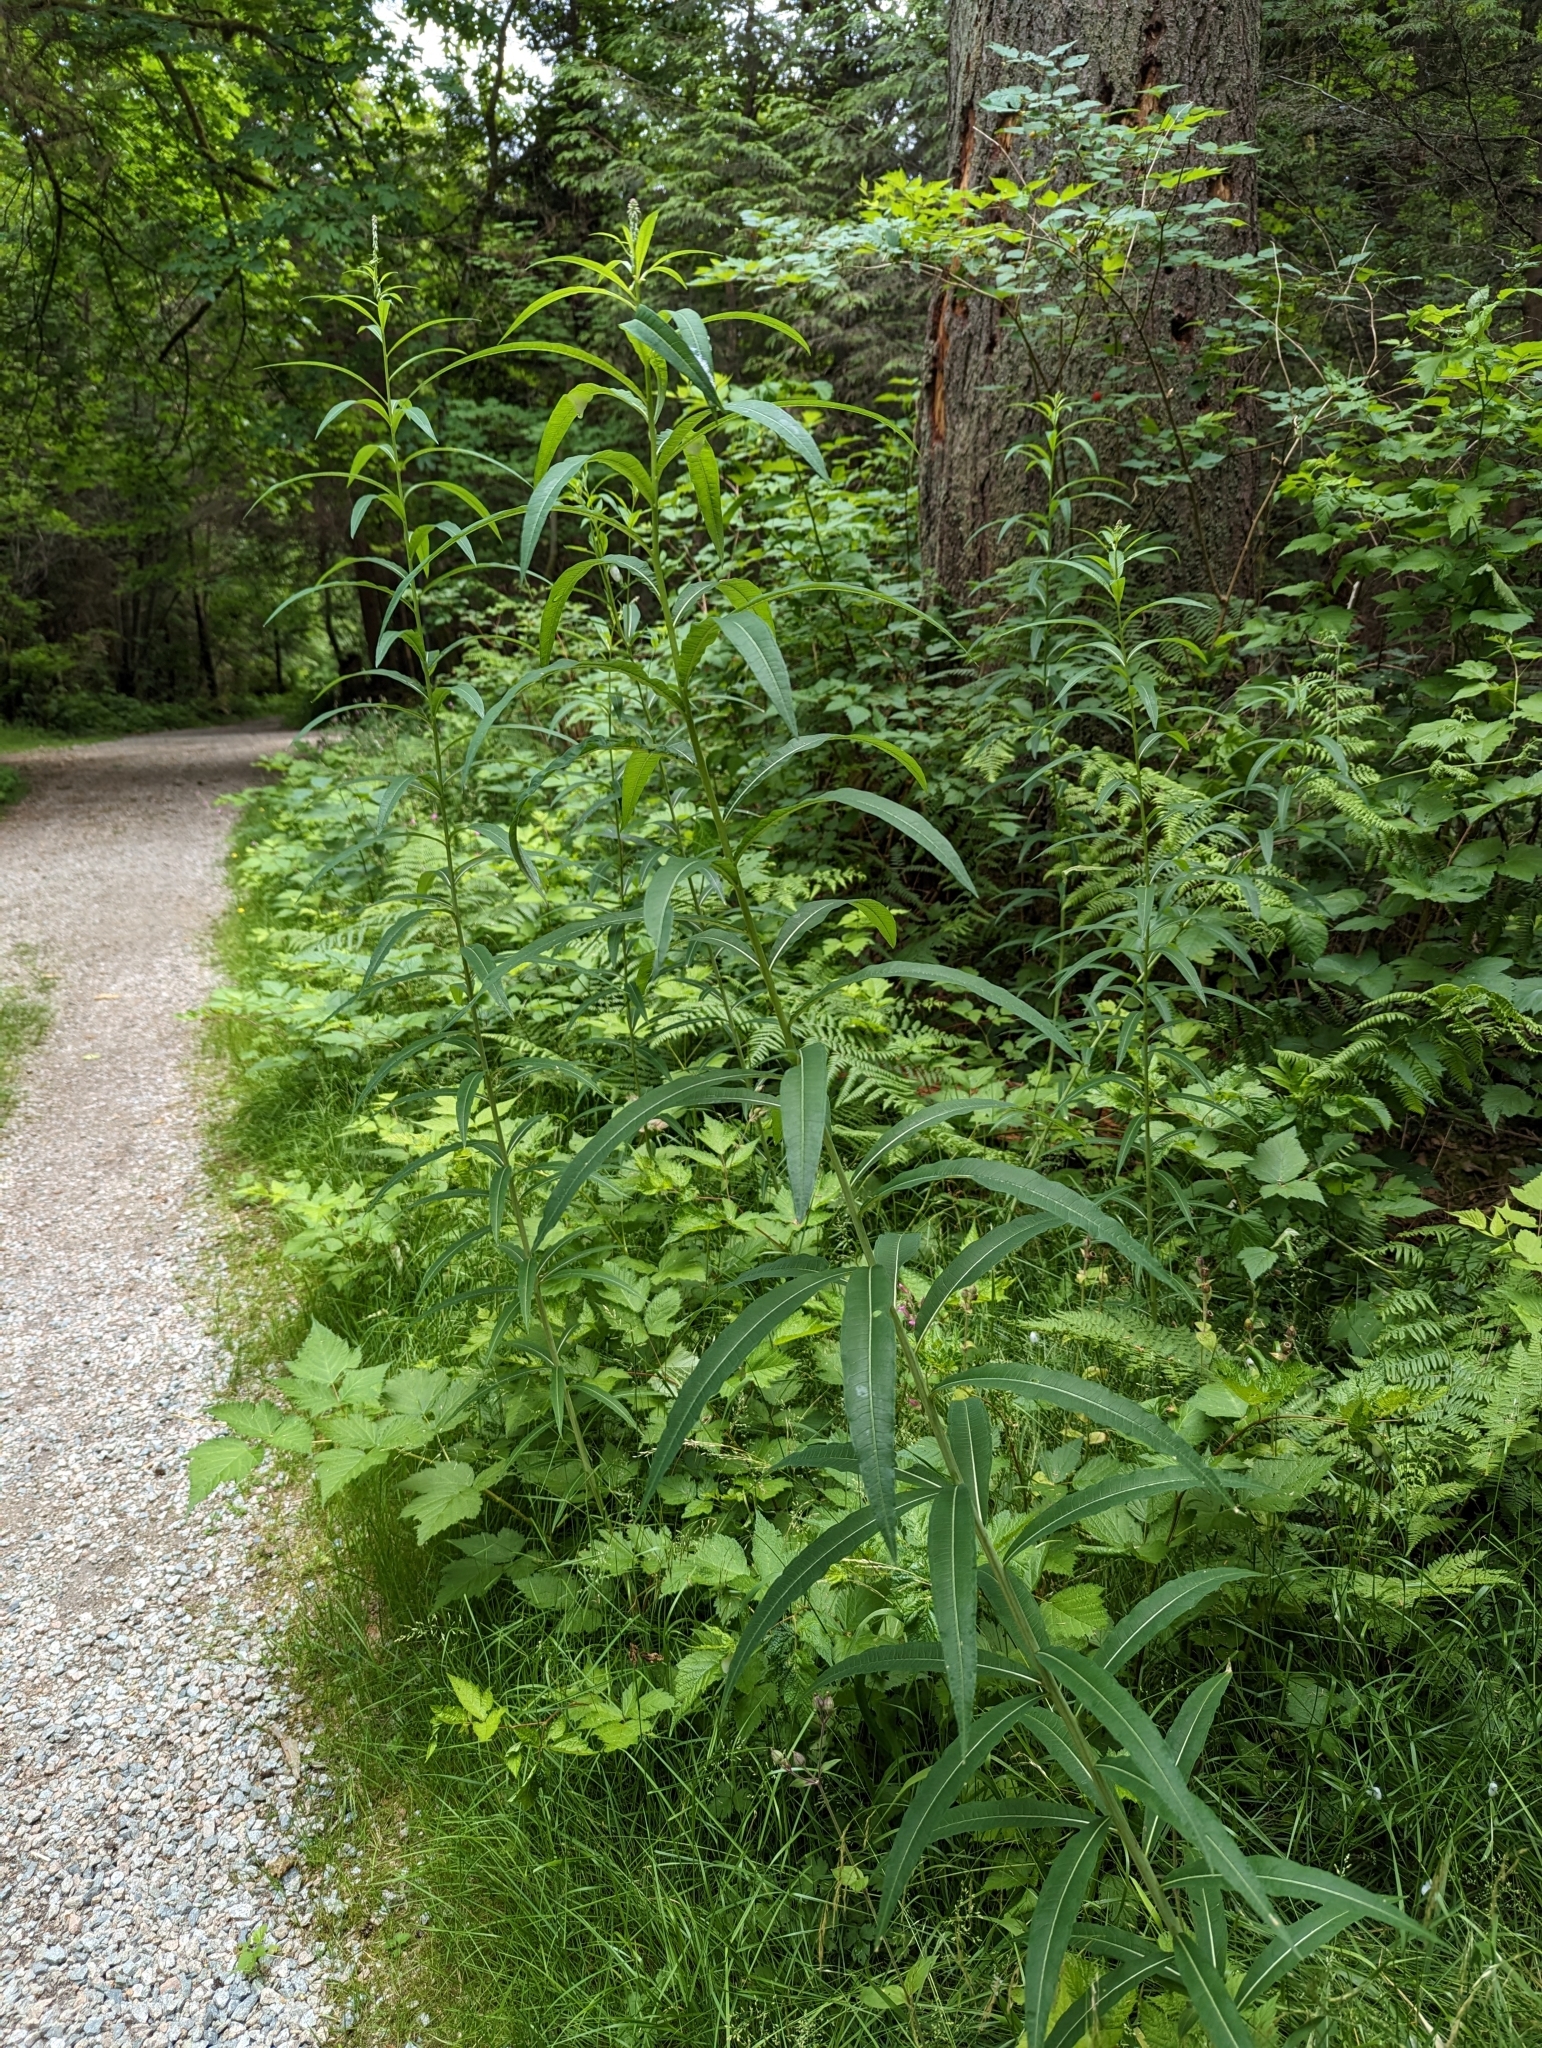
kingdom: Plantae
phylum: Tracheophyta
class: Magnoliopsida
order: Myrtales
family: Onagraceae
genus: Chamaenerion
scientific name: Chamaenerion angustifolium
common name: Fireweed
